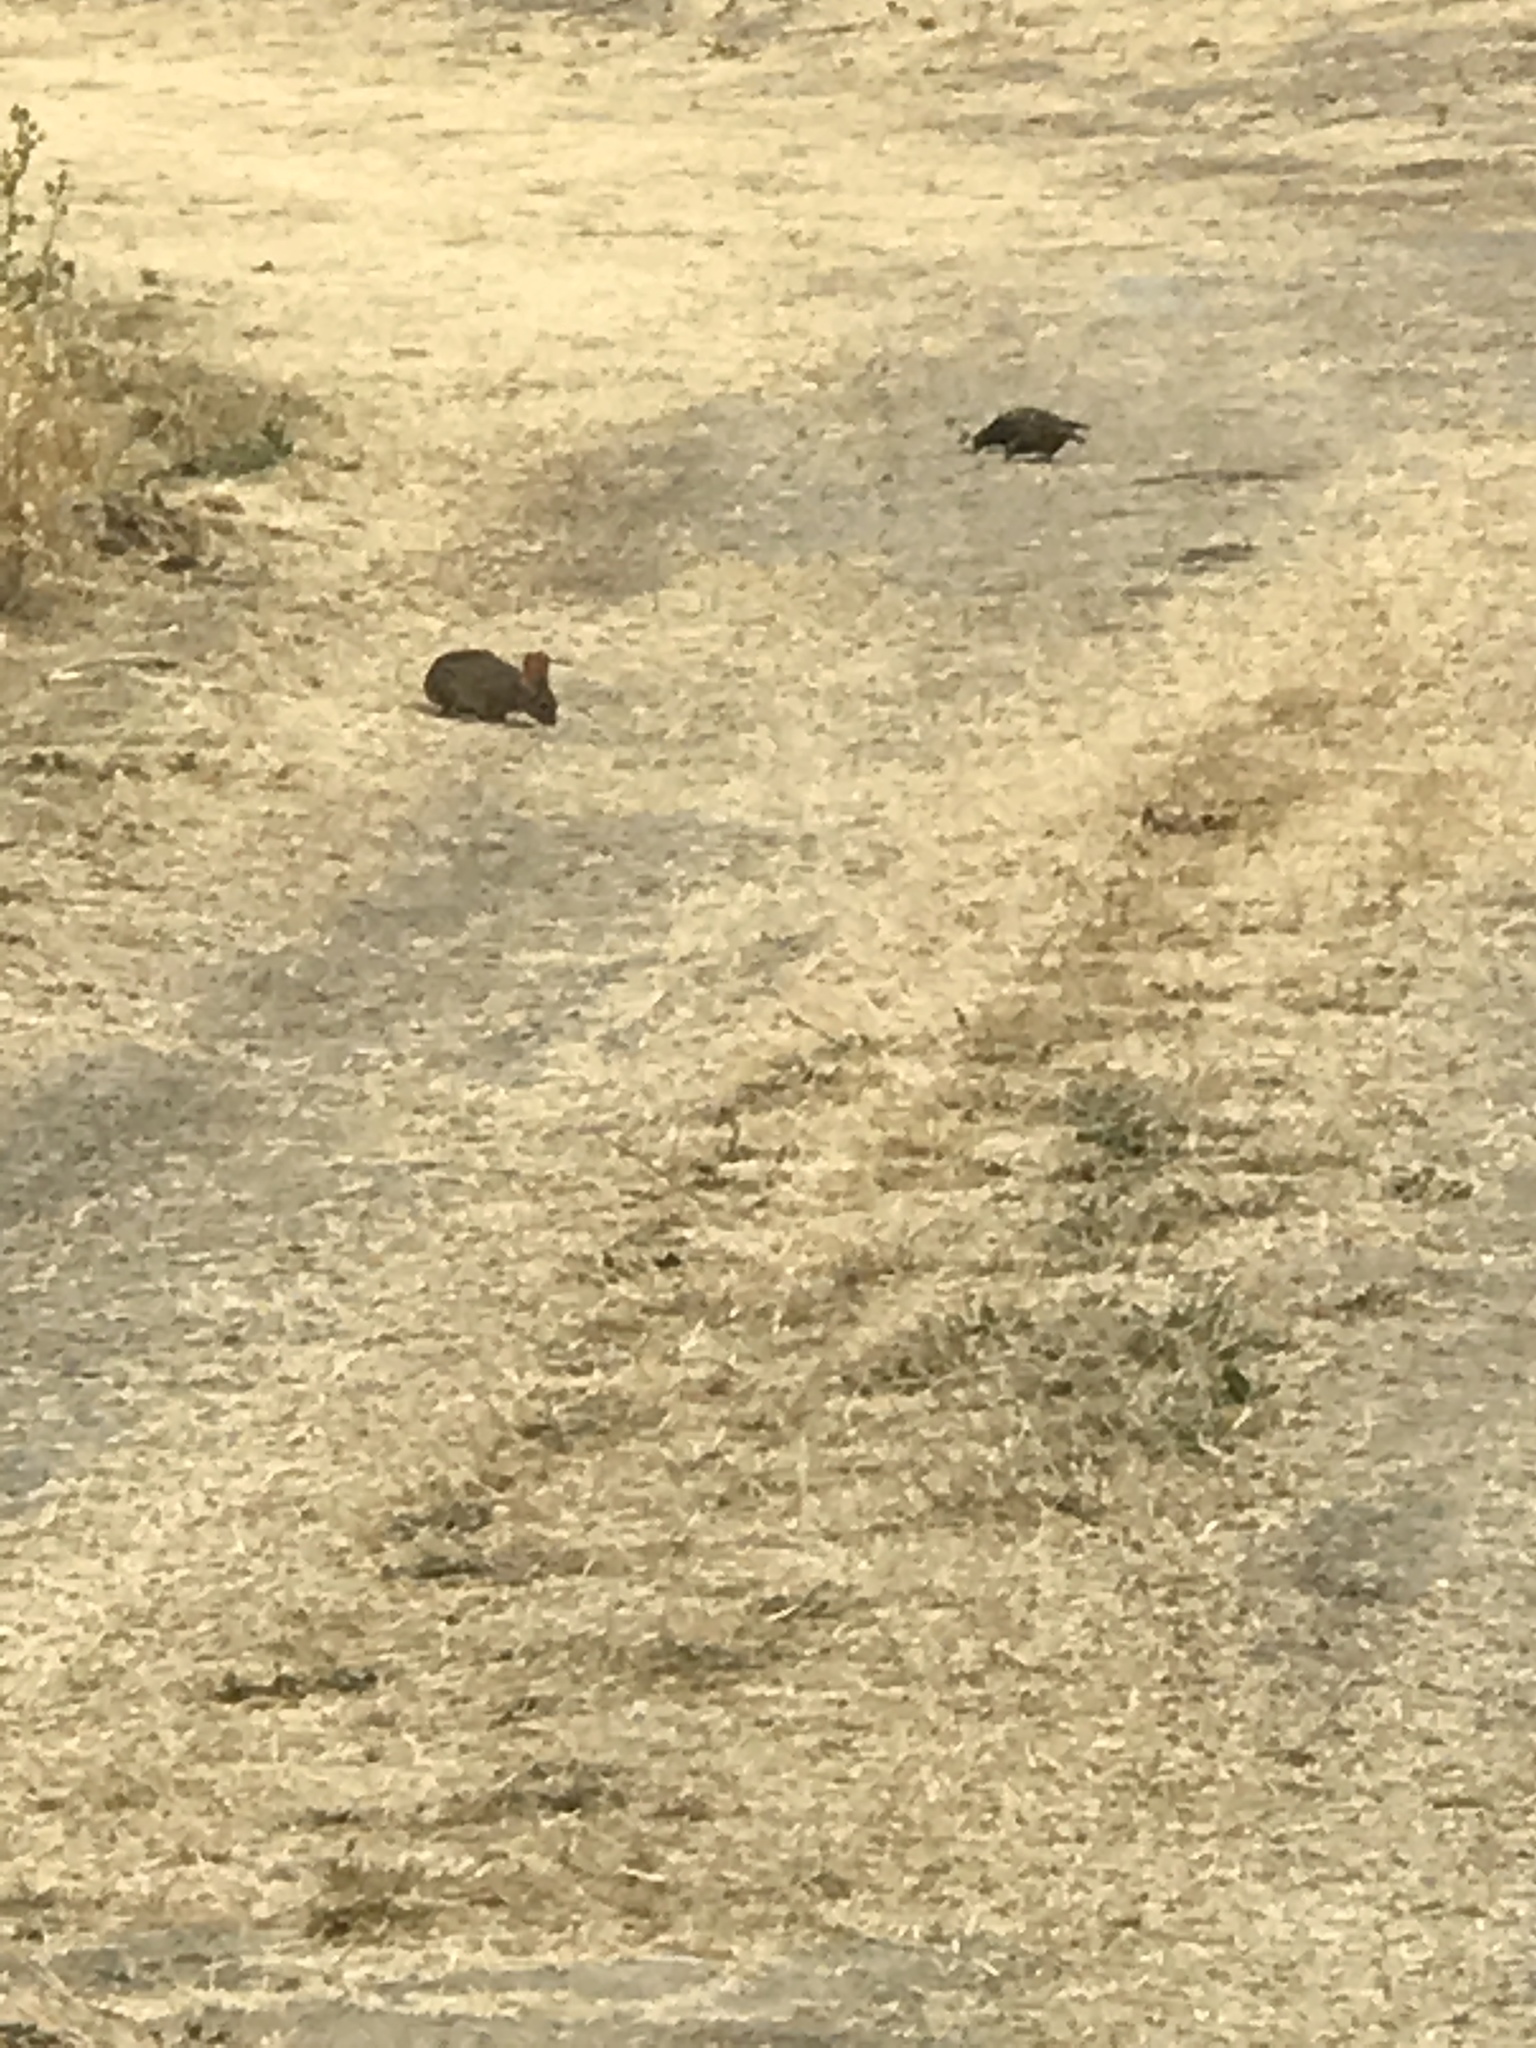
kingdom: Animalia
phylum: Chordata
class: Mammalia
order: Lagomorpha
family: Leporidae
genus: Sylvilagus
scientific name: Sylvilagus bachmani
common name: Brush rabbit
